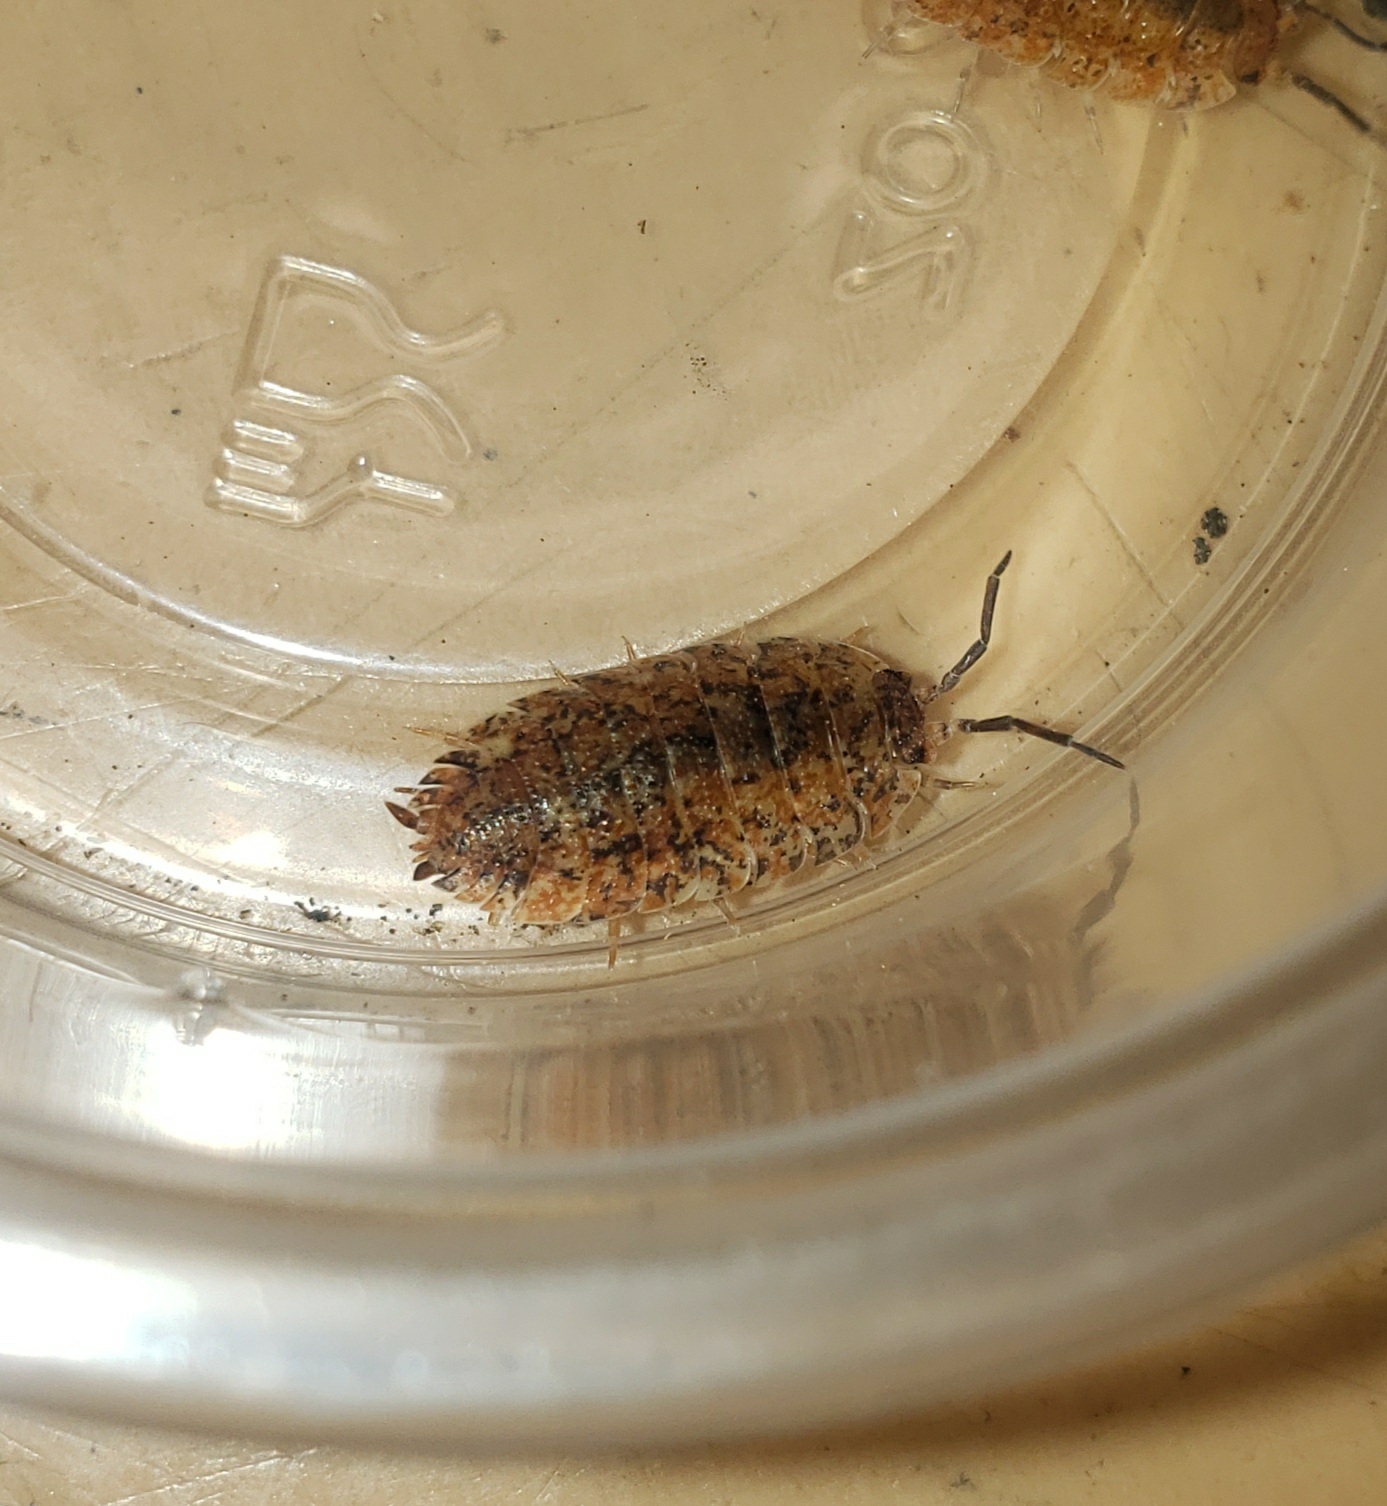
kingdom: Animalia
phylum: Arthropoda
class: Malacostraca
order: Isopoda
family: Porcellionidae
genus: Porcellio
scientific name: Porcellio scaber
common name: Common rough woodlouse
